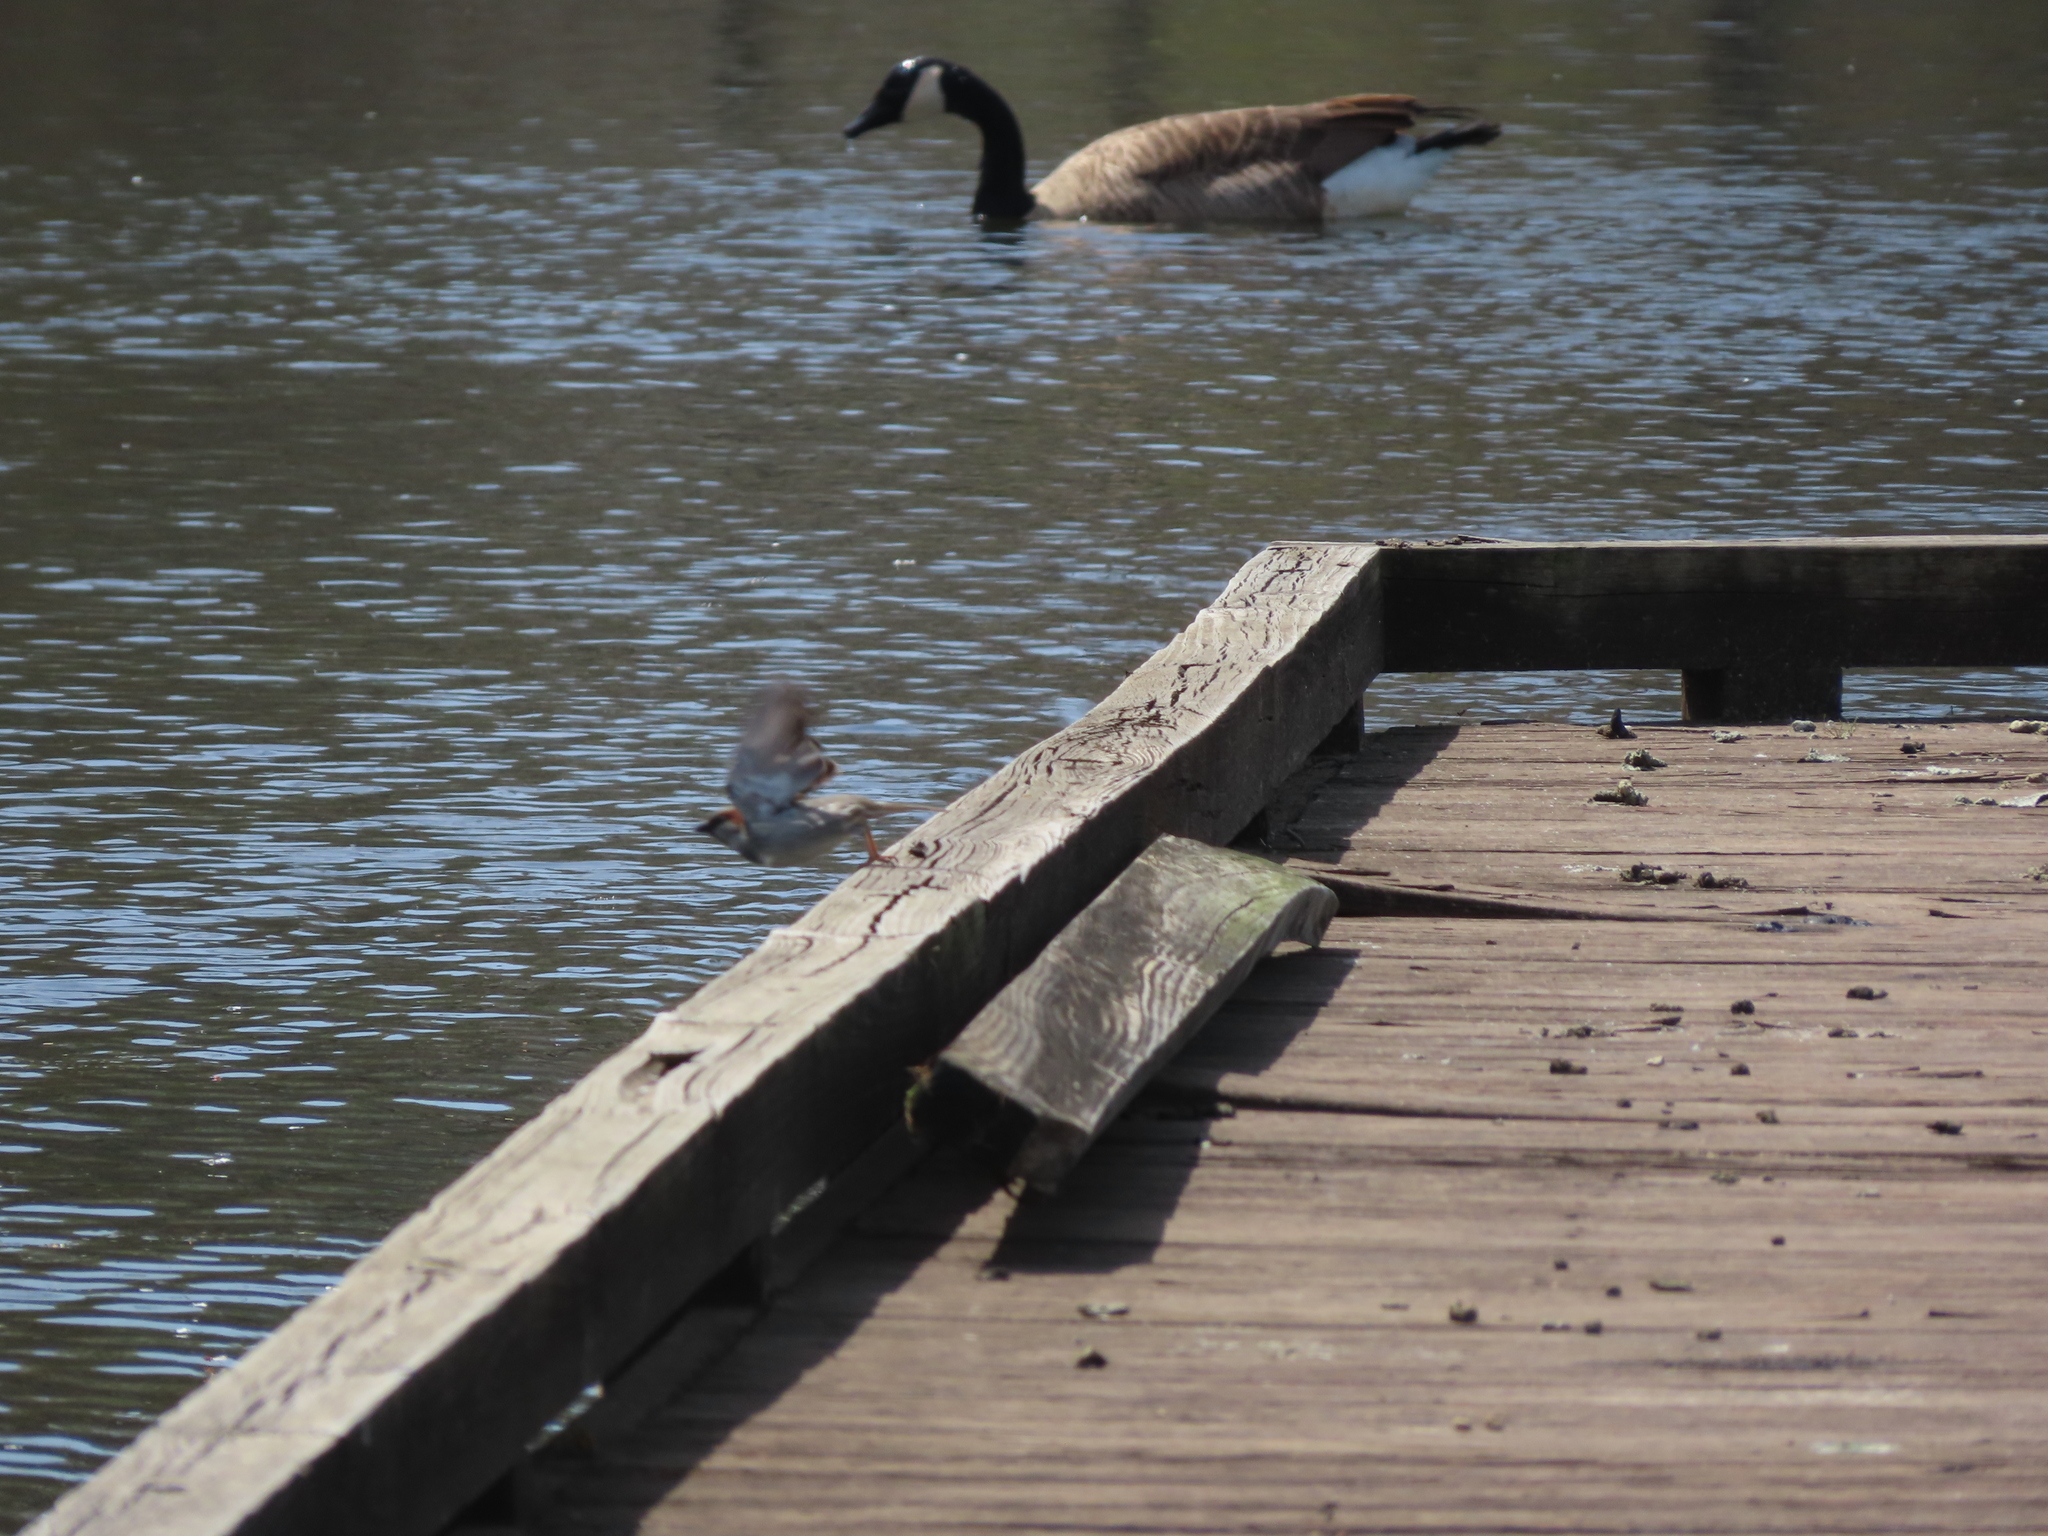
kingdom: Animalia
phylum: Chordata
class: Aves
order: Passeriformes
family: Passeridae
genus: Passer
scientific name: Passer domesticus
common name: House sparrow
